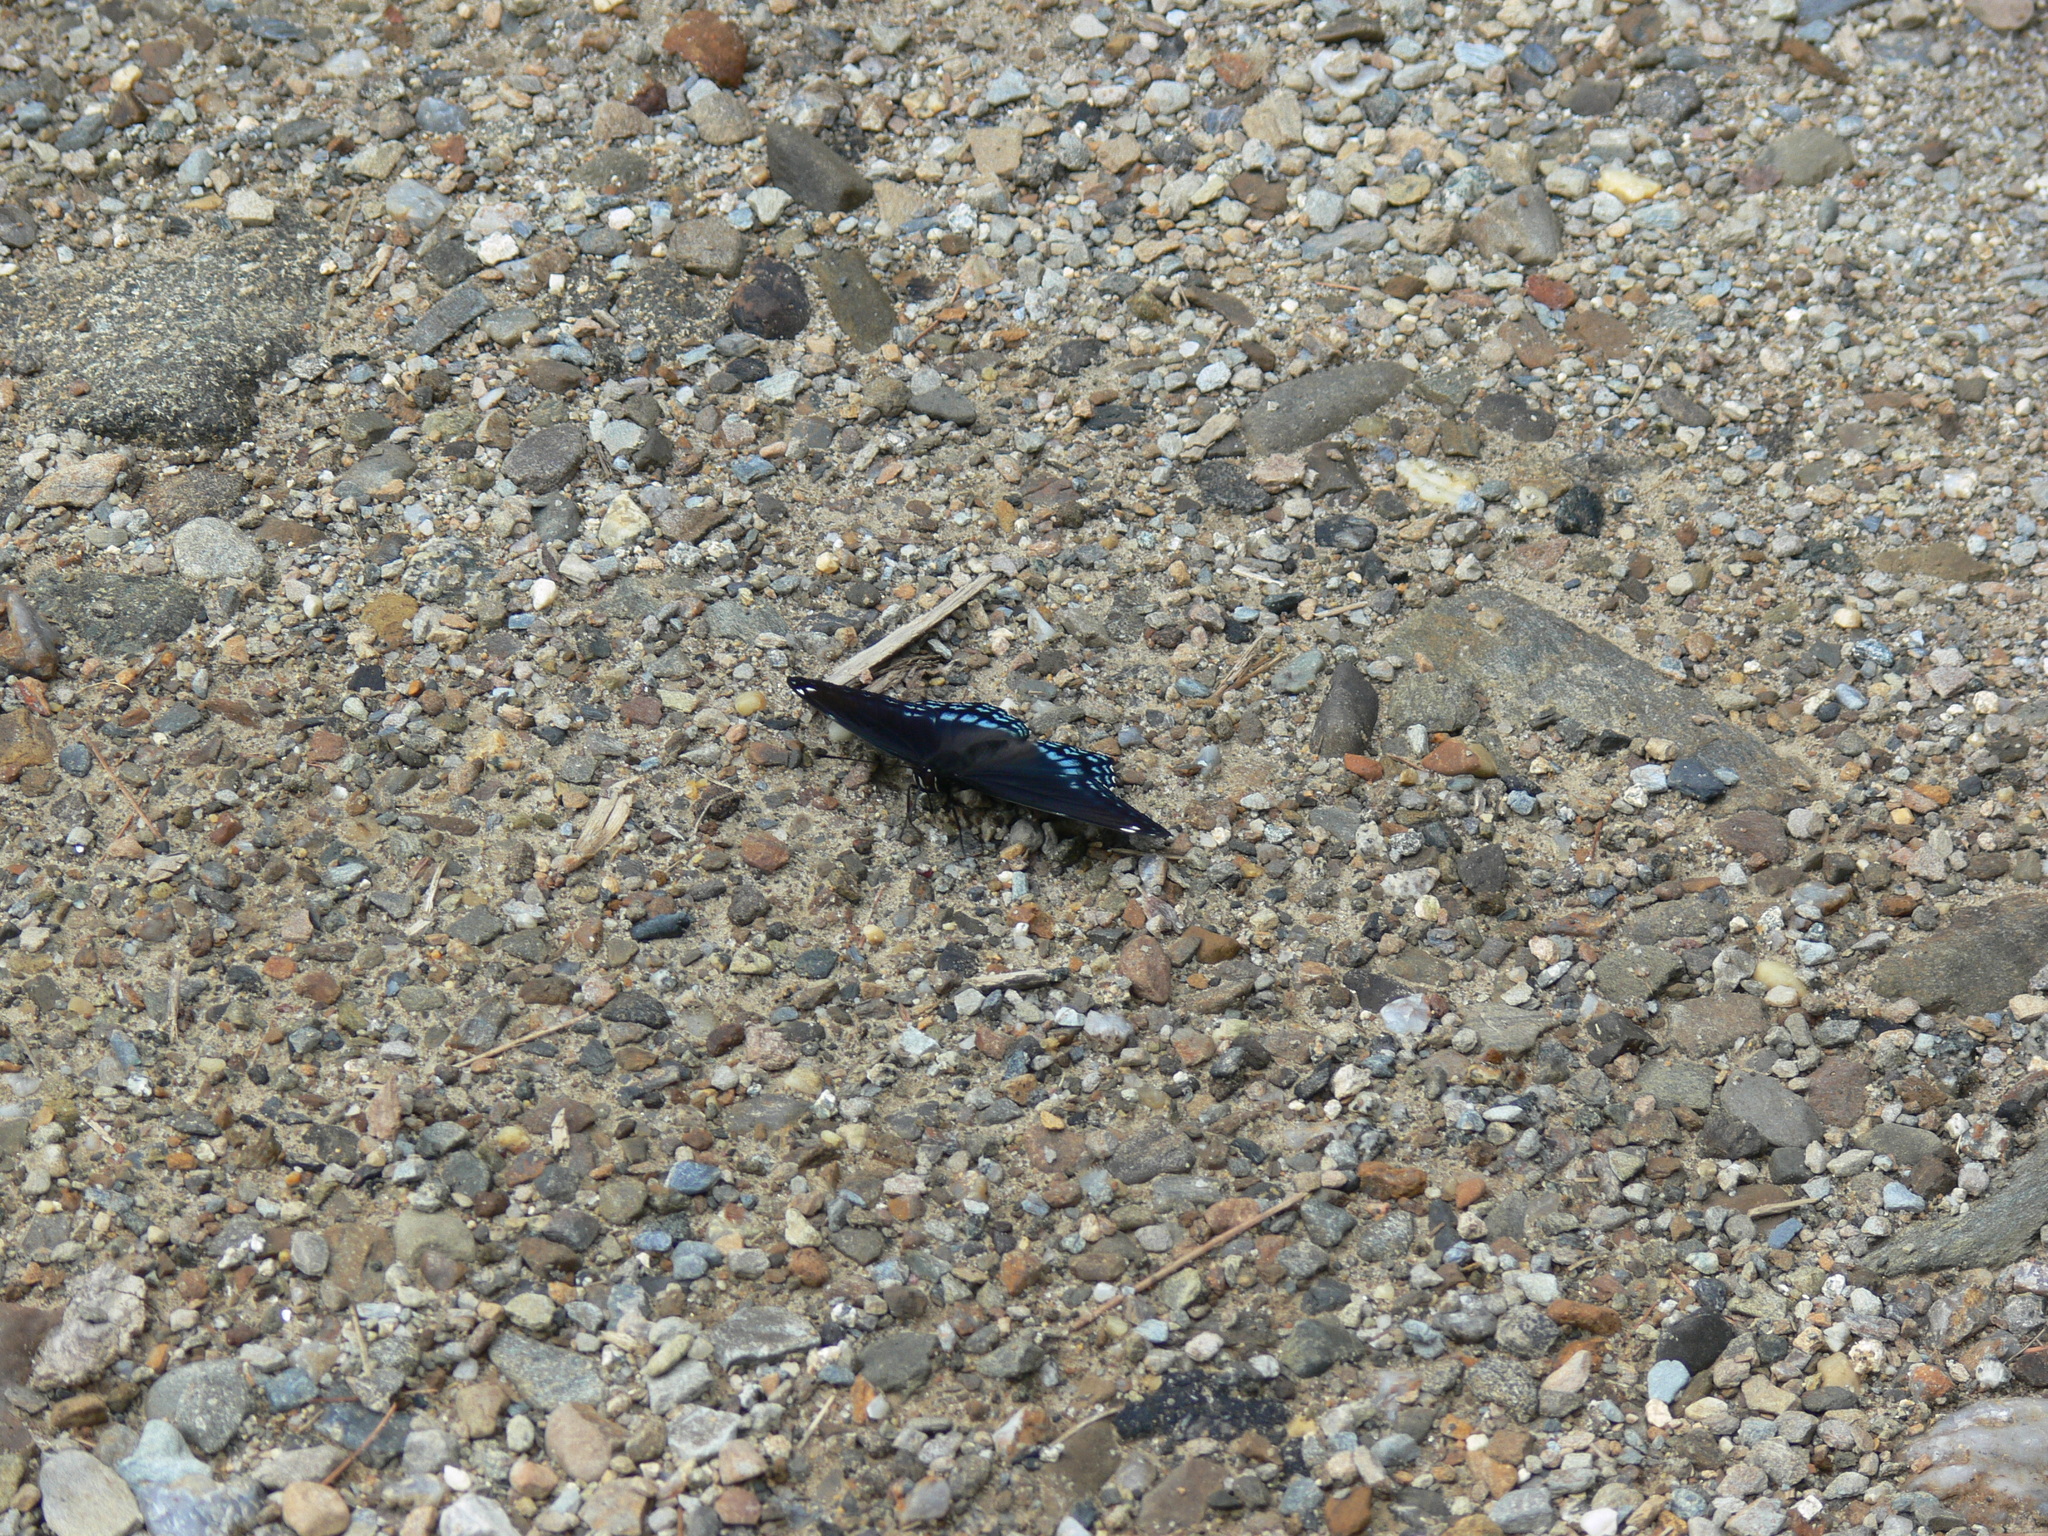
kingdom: Animalia
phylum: Arthropoda
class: Insecta
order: Lepidoptera
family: Nymphalidae
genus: Limenitis
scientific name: Limenitis astyanax
